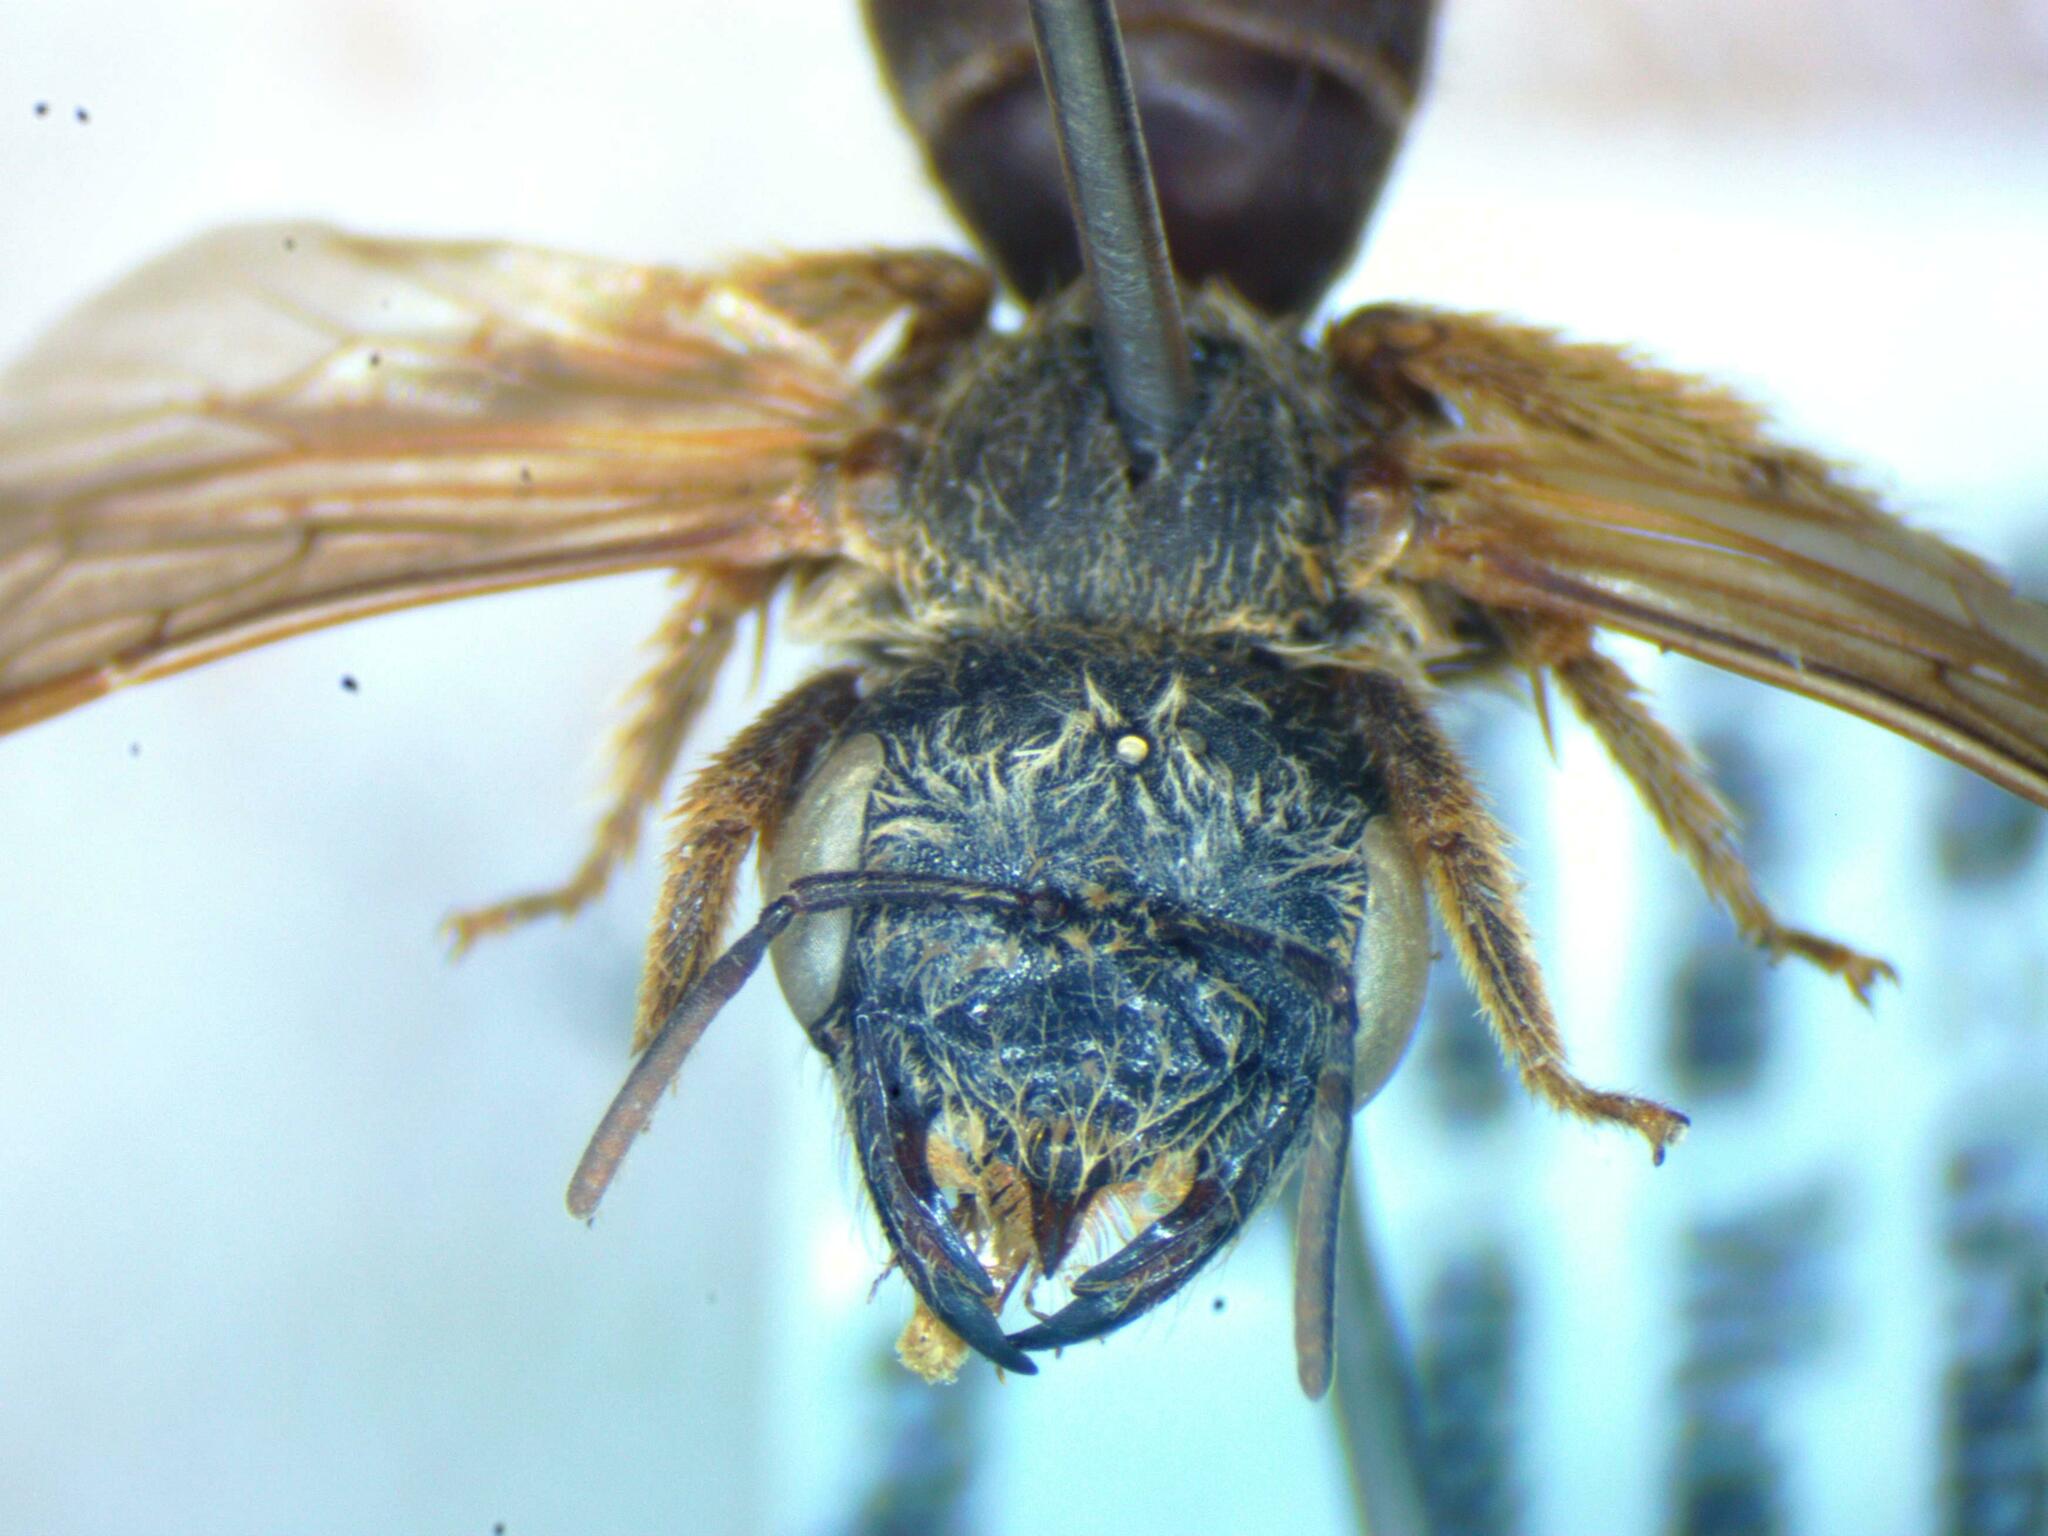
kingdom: Animalia
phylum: Arthropoda
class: Insecta
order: Hymenoptera
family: Halictidae
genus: Halictus
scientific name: Halictus ligatus
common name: Ligated furrow bee
